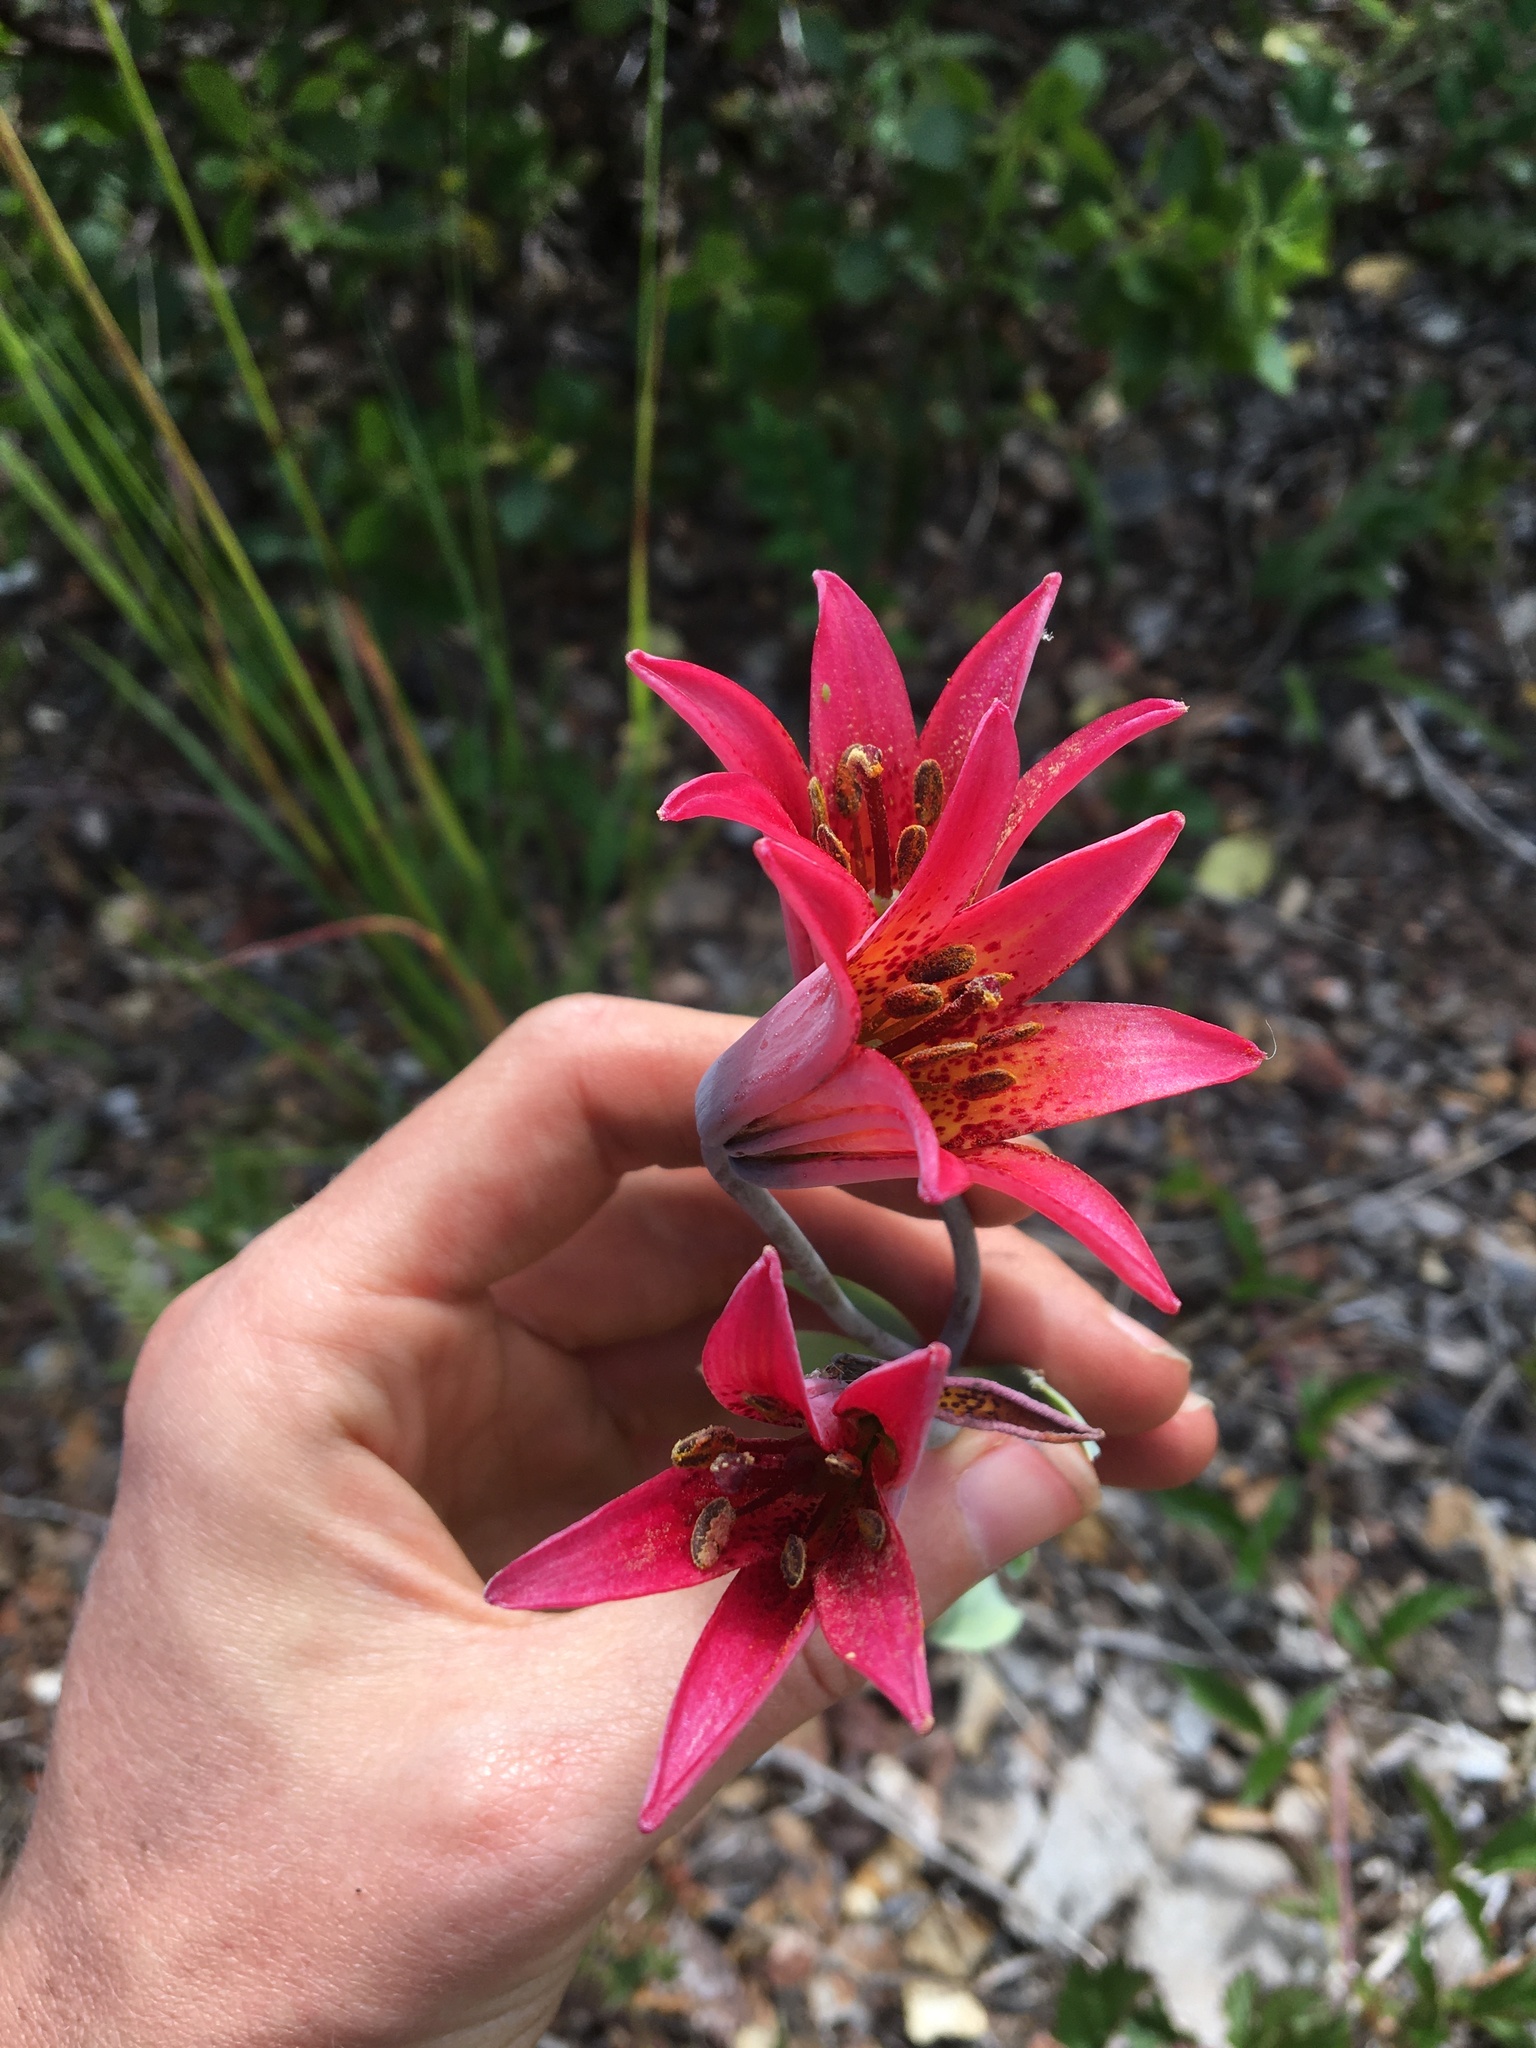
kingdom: Plantae
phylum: Tracheophyta
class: Liliopsida
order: Liliales
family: Liliaceae
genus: Lilium
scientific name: Lilium bolanderi
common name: Bolander's lily
